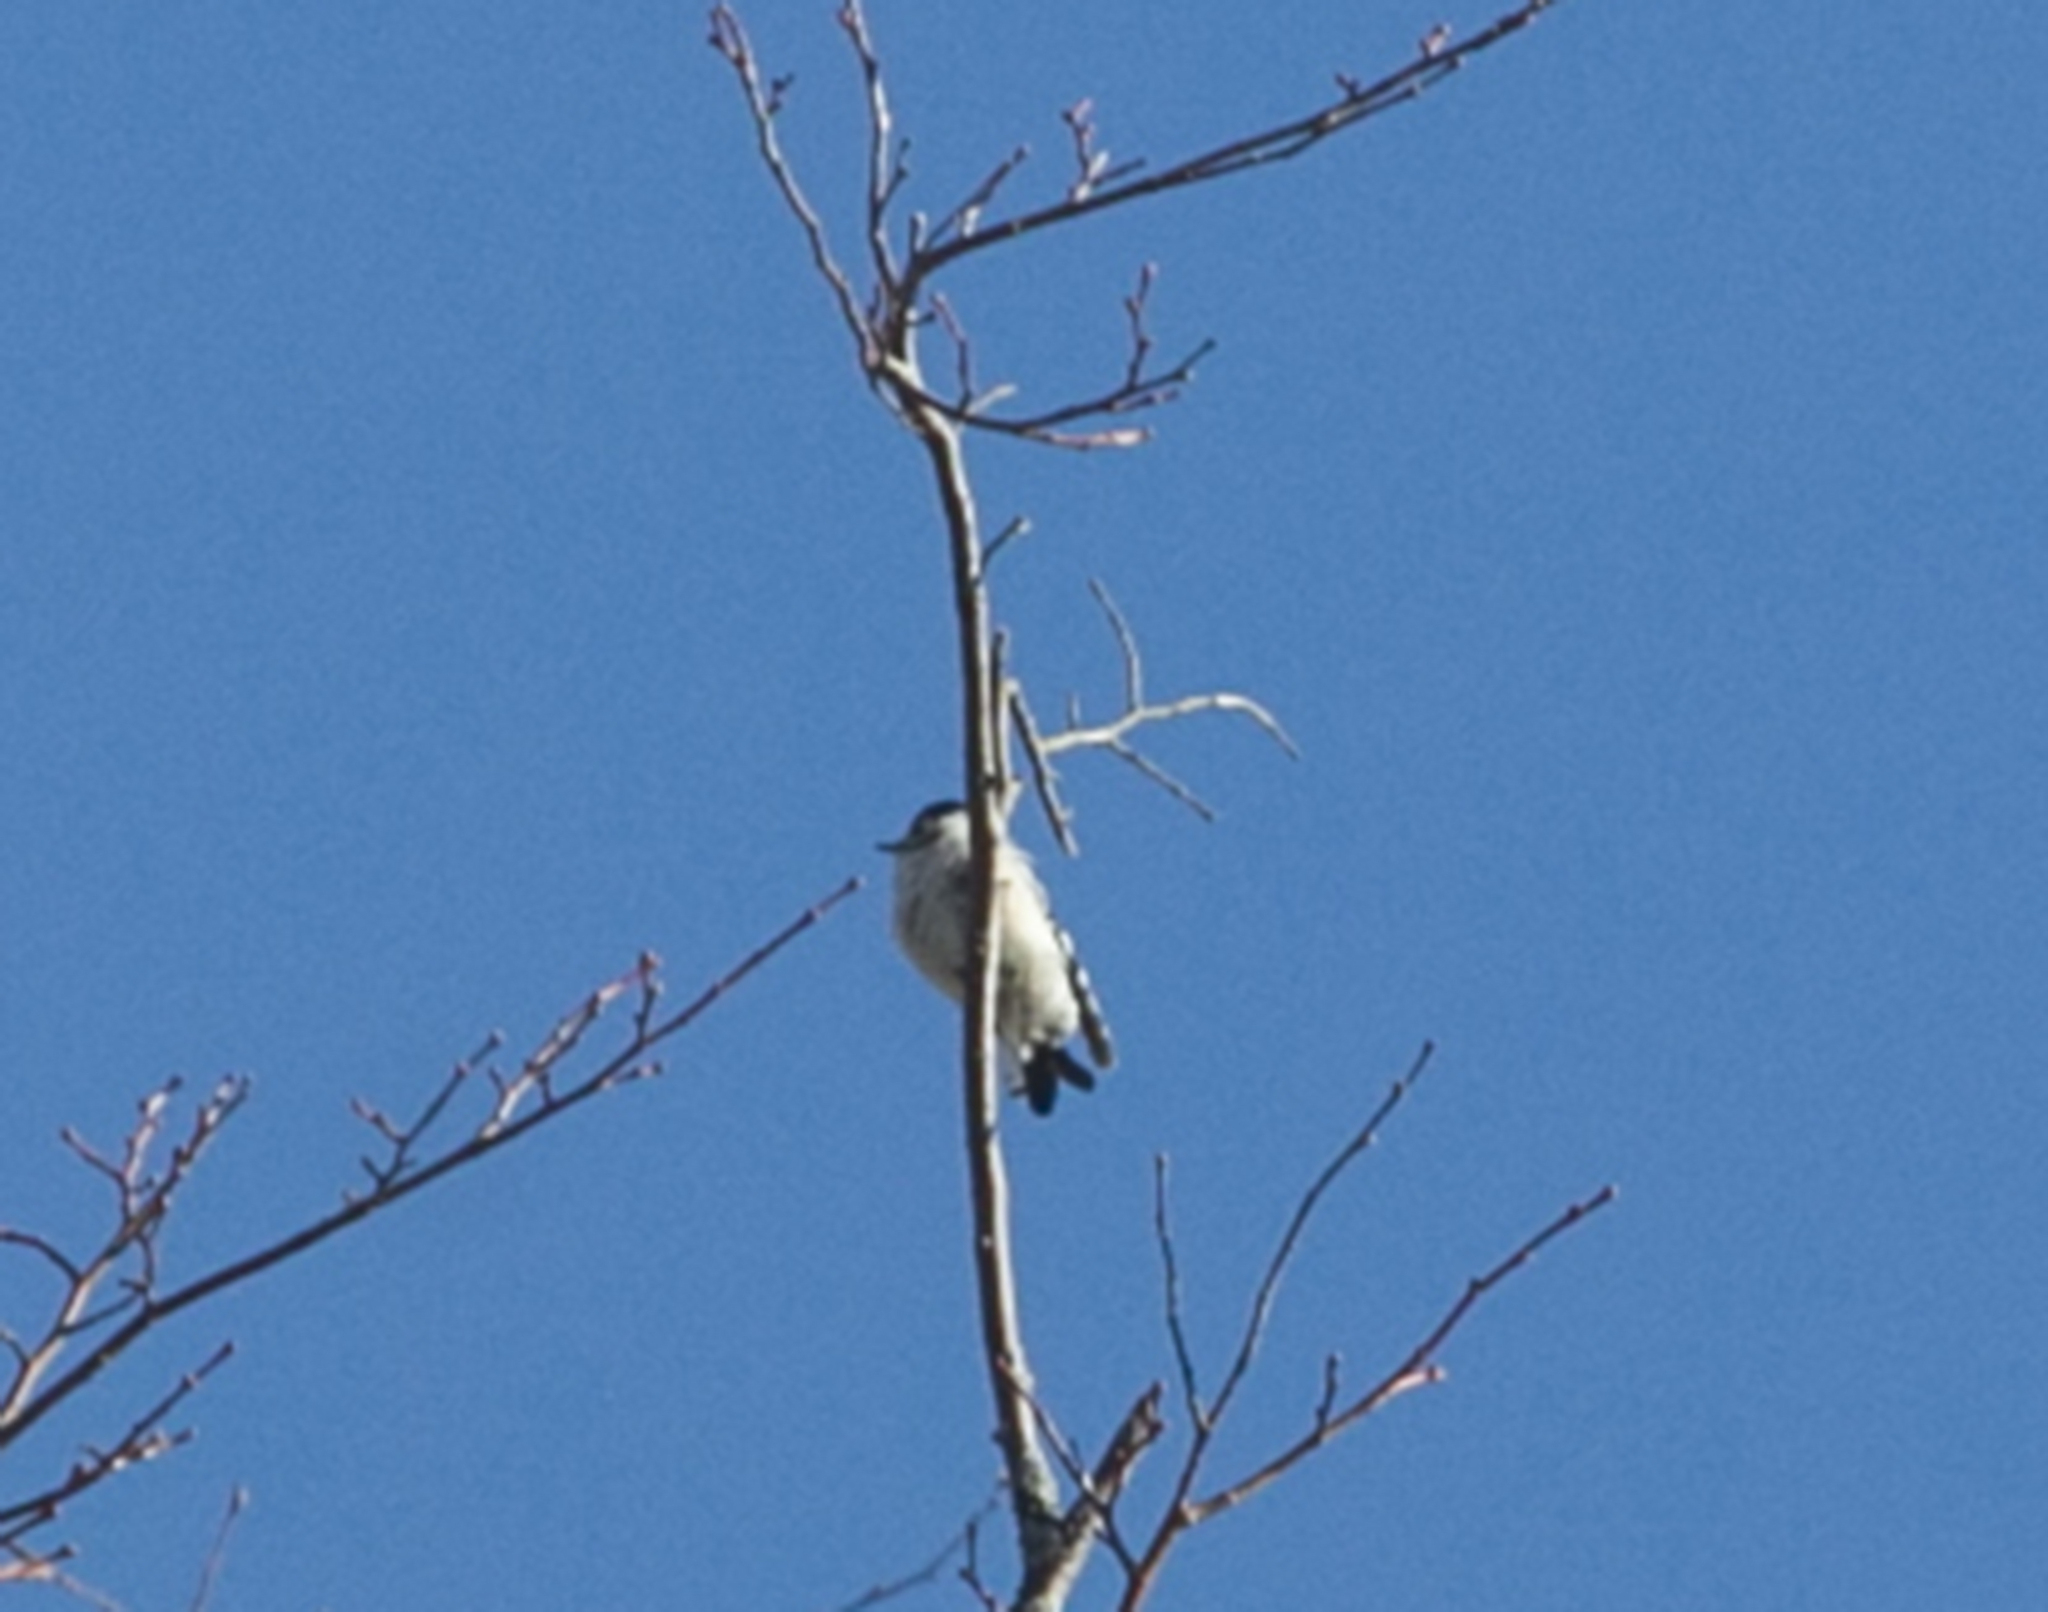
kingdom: Animalia
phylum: Chordata
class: Aves
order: Piciformes
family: Picidae
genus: Dryobates
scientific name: Dryobates minor
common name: Lesser spotted woodpecker
